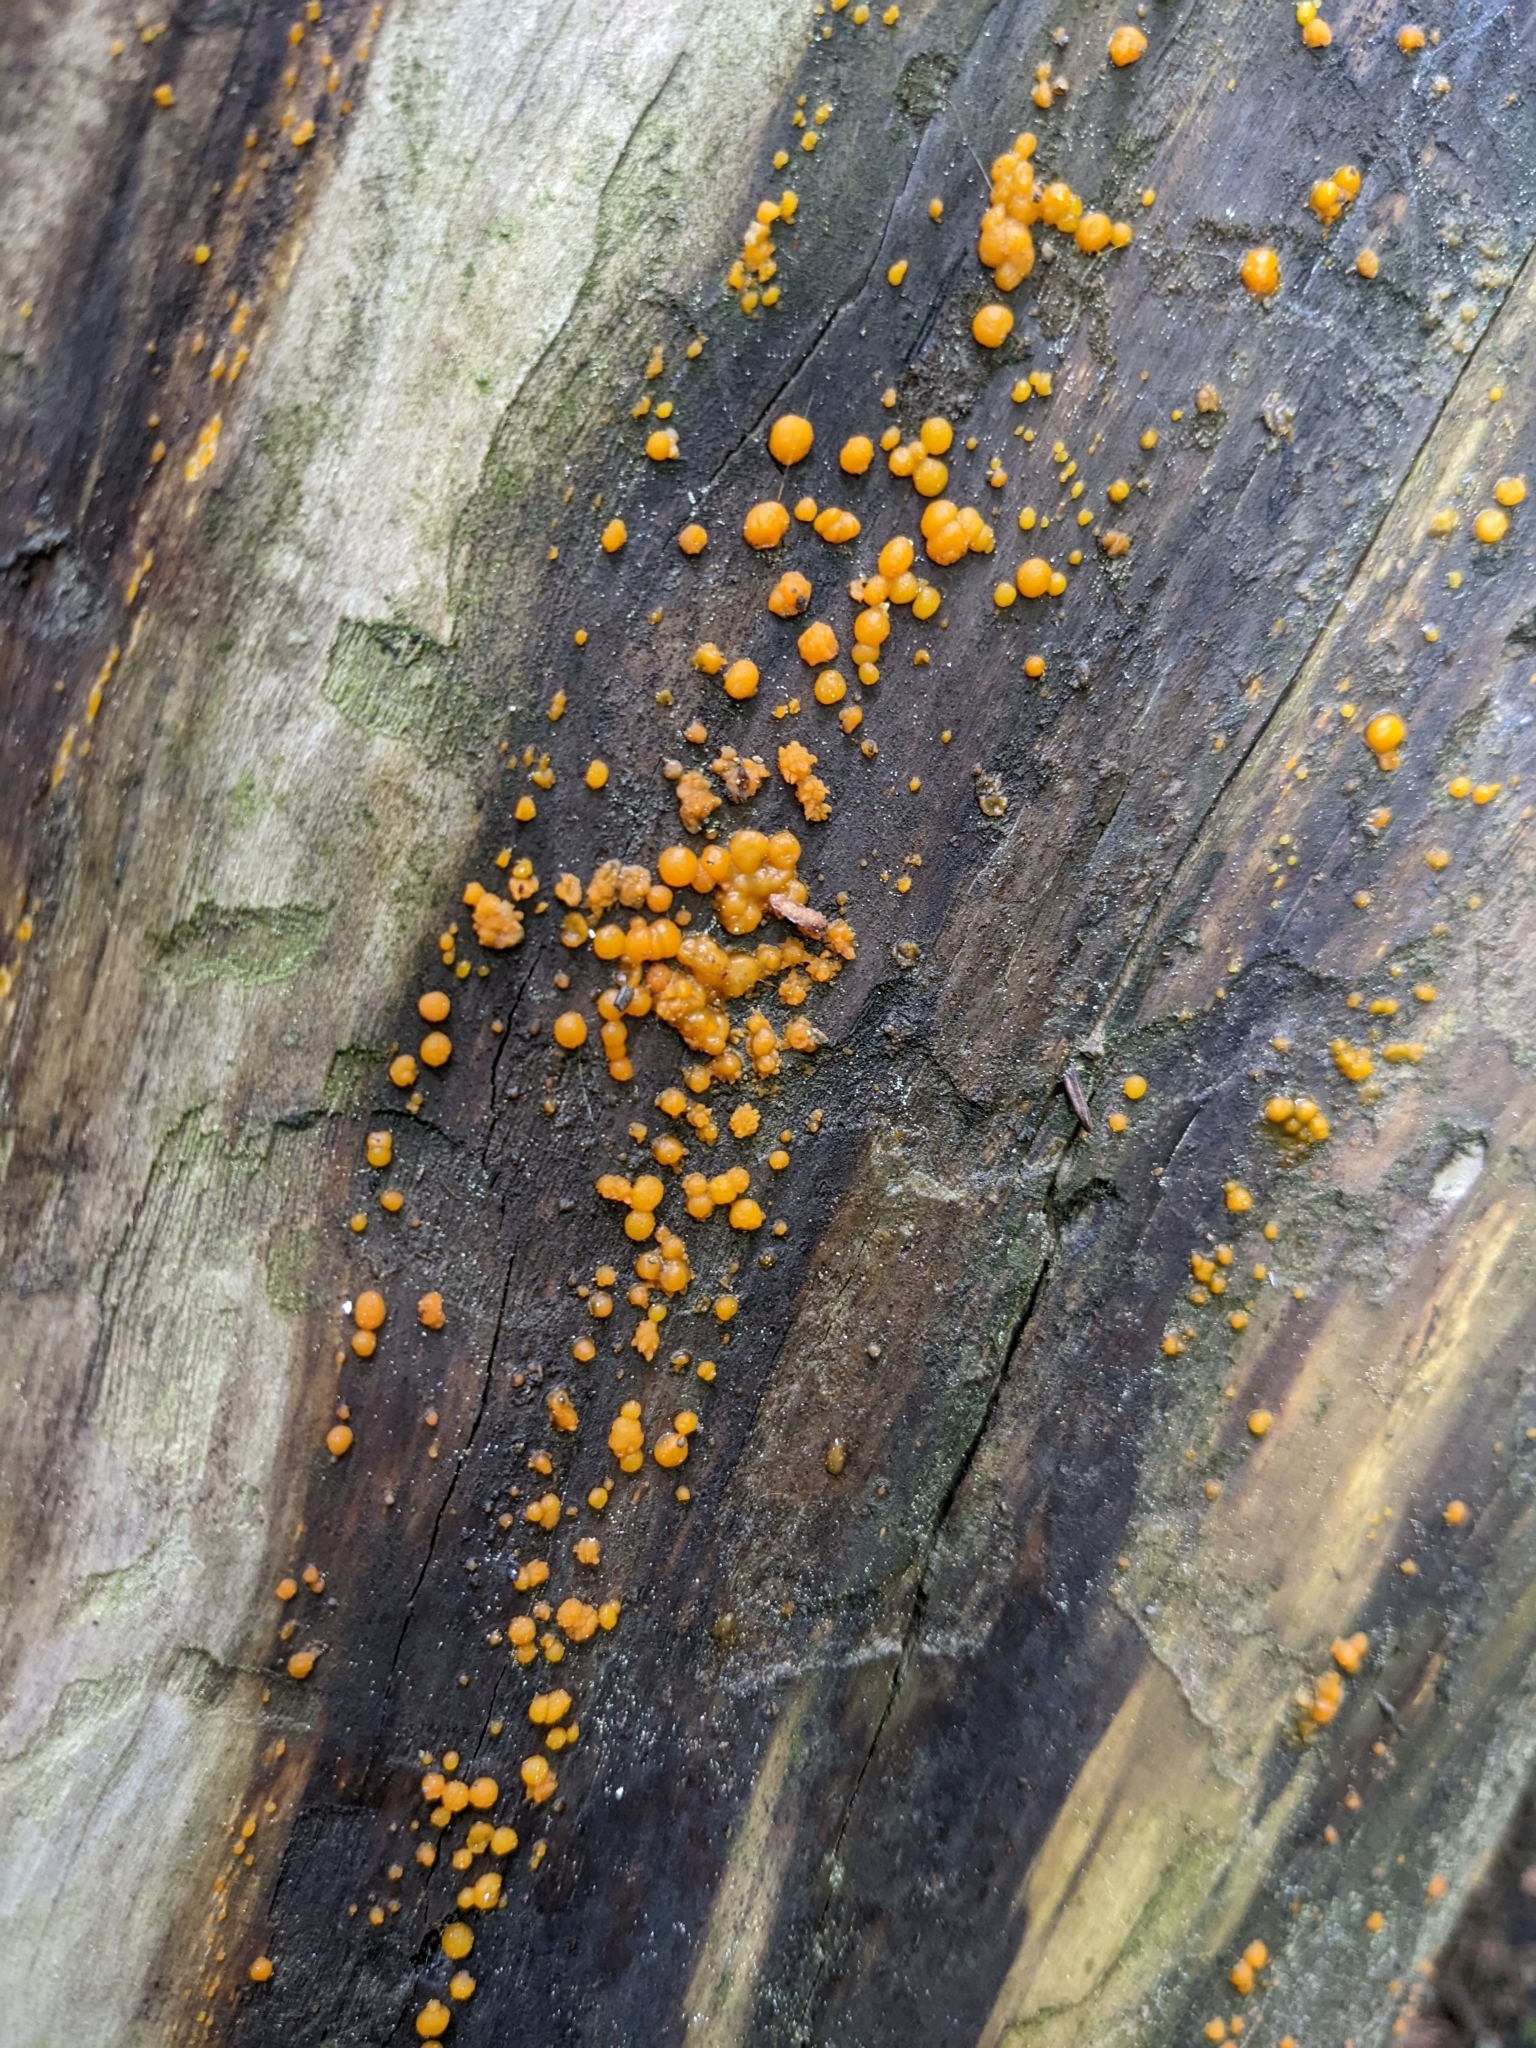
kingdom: Fungi
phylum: Basidiomycota
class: Dacrymycetes
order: Dacrymycetales
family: Dacrymycetaceae
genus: Dacrymyces
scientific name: Dacrymyces stillatus
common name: Common jelly spot
